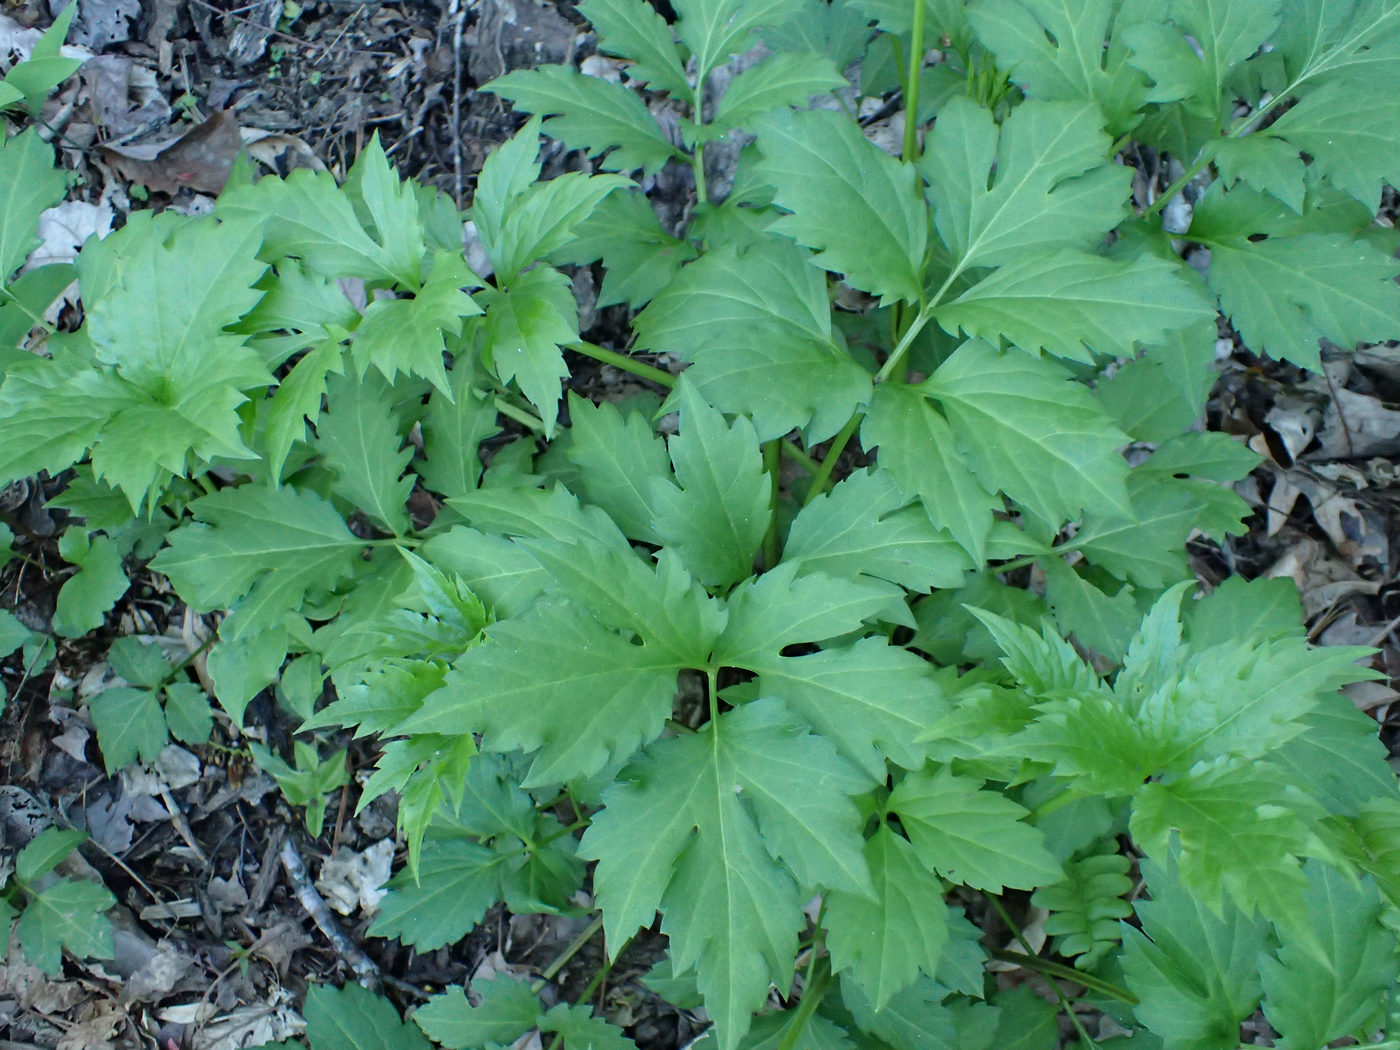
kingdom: Plantae
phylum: Tracheophyta
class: Magnoliopsida
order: Asterales
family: Asteraceae
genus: Rudbeckia
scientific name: Rudbeckia laciniata
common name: Coneflower
